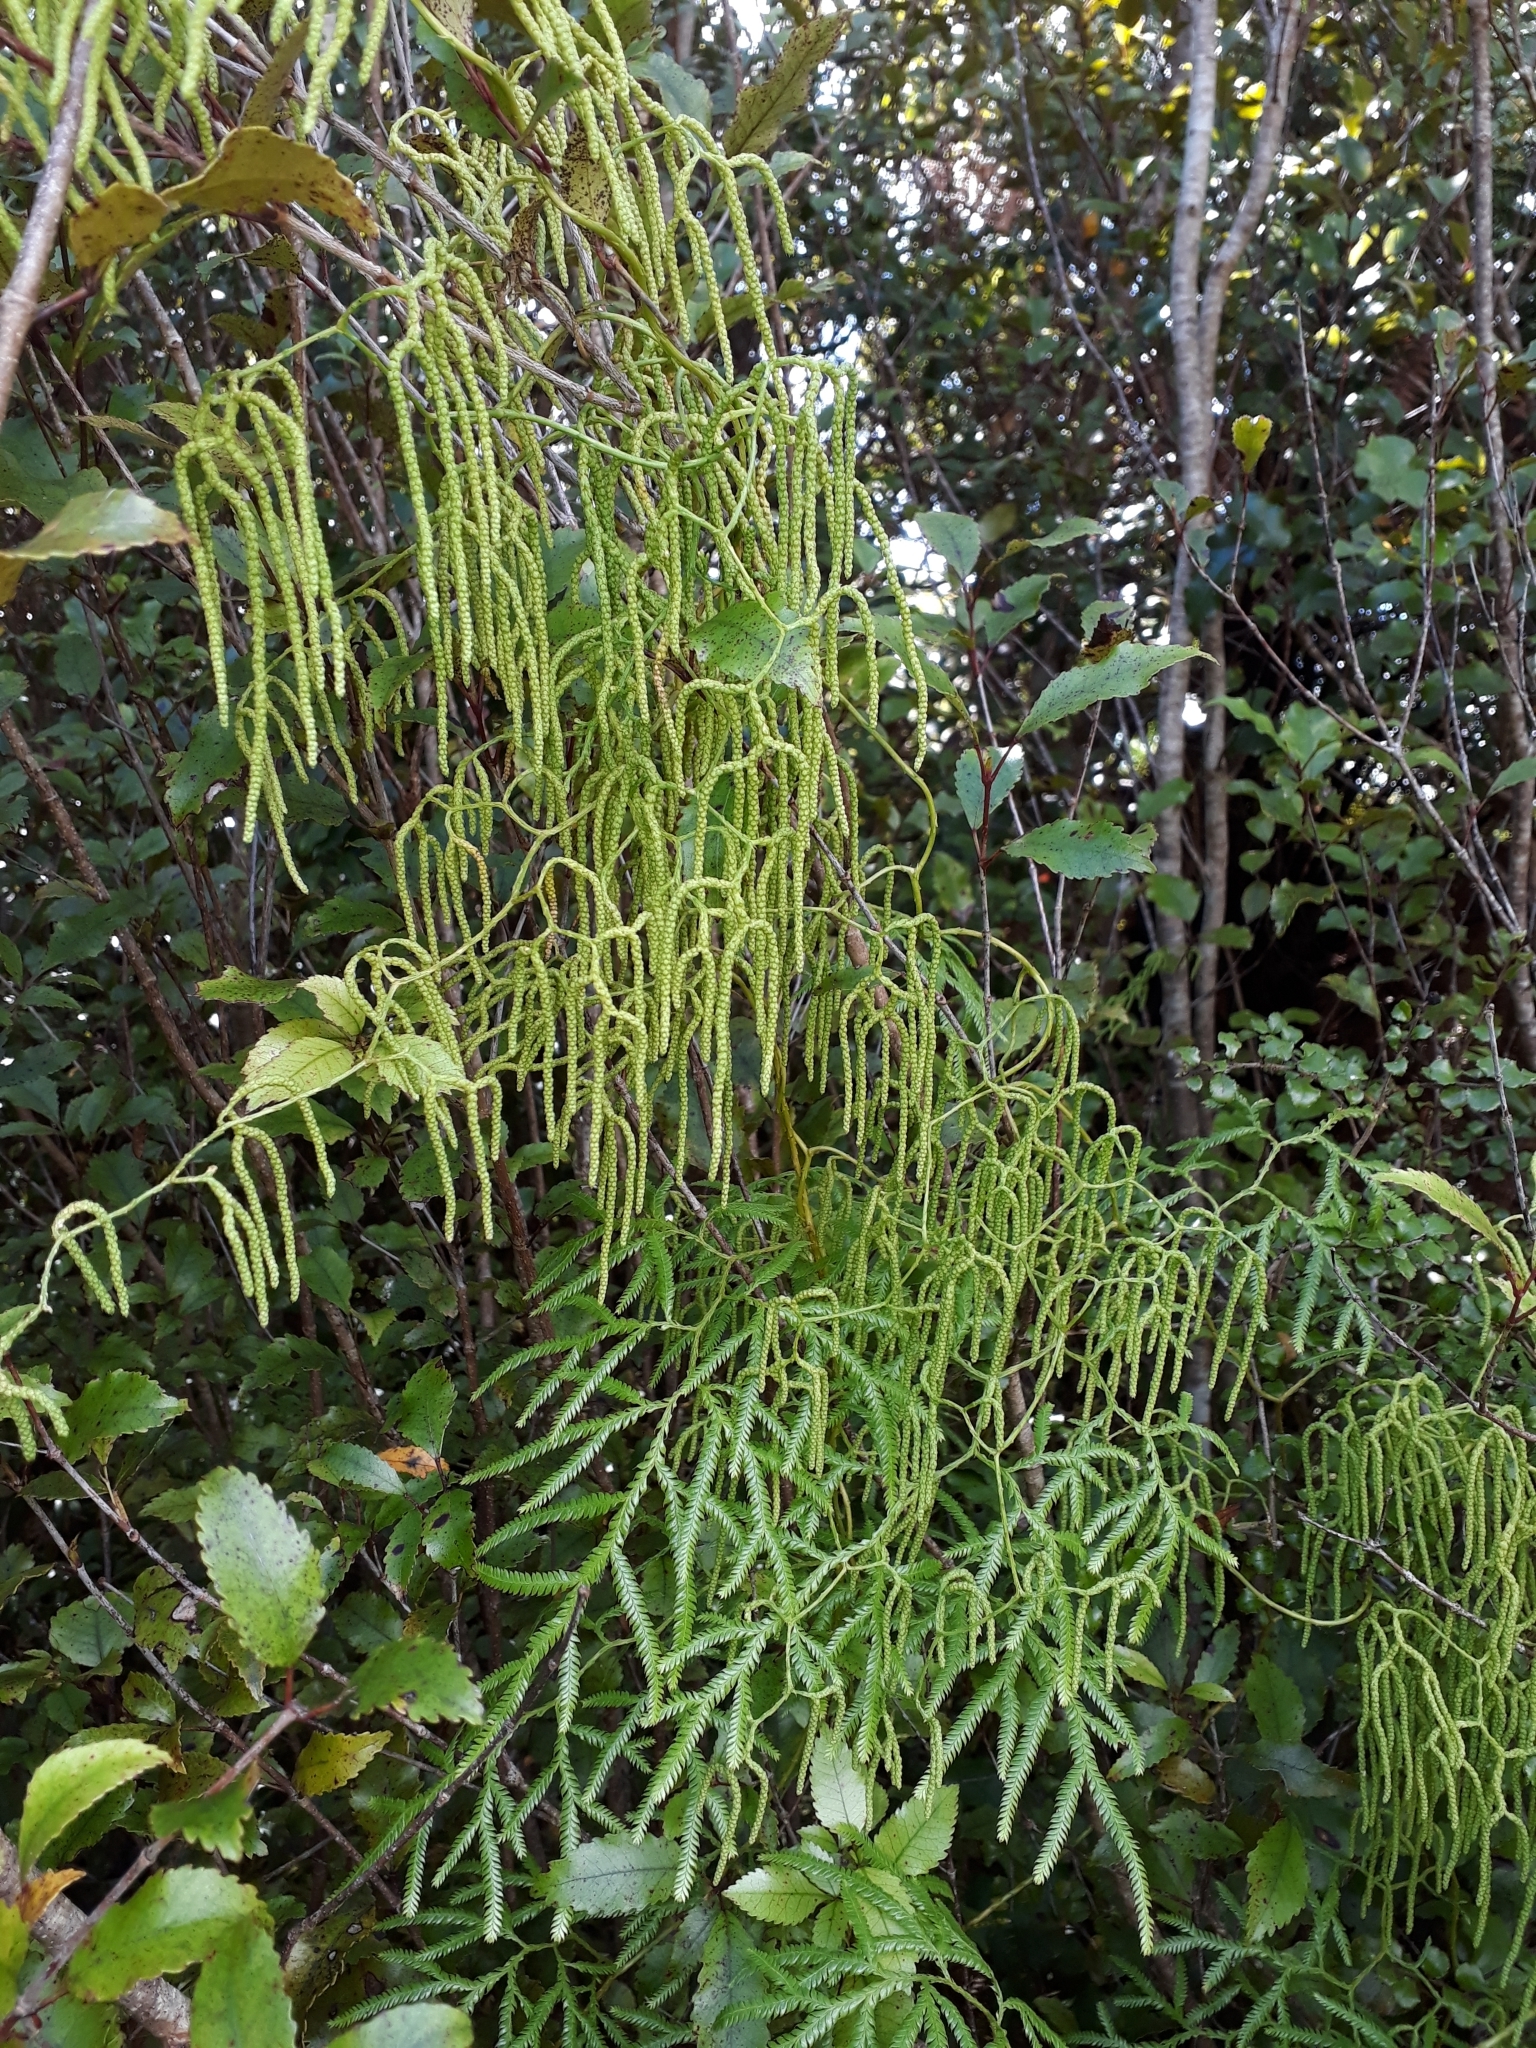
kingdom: Plantae
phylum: Tracheophyta
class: Lycopodiopsida
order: Lycopodiales
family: Lycopodiaceae
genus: Lycopodium
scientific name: Lycopodium volubile
